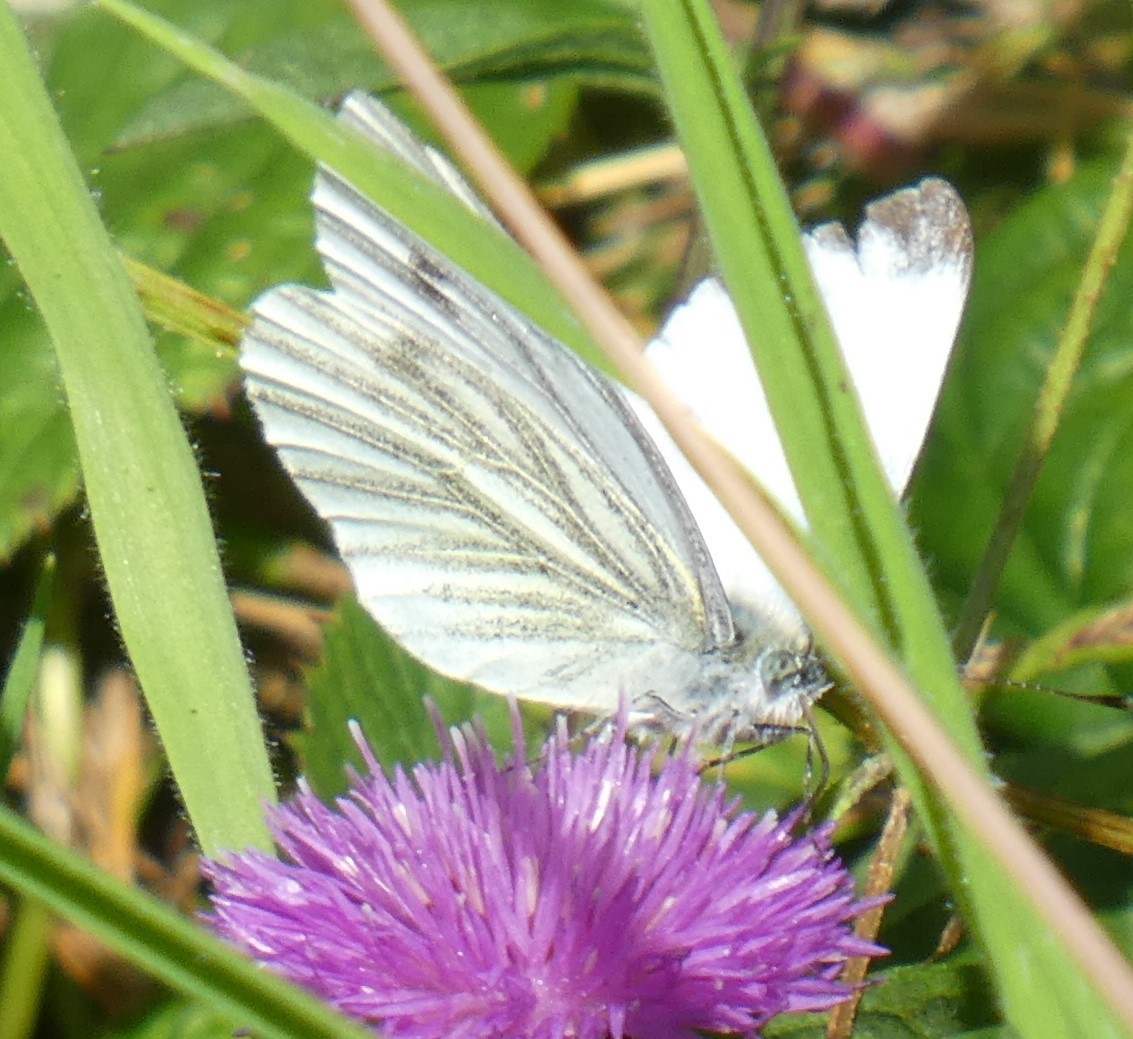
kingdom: Animalia
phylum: Arthropoda
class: Insecta
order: Lepidoptera
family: Pieridae
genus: Pieris
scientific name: Pieris napi
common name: Green-veined white
